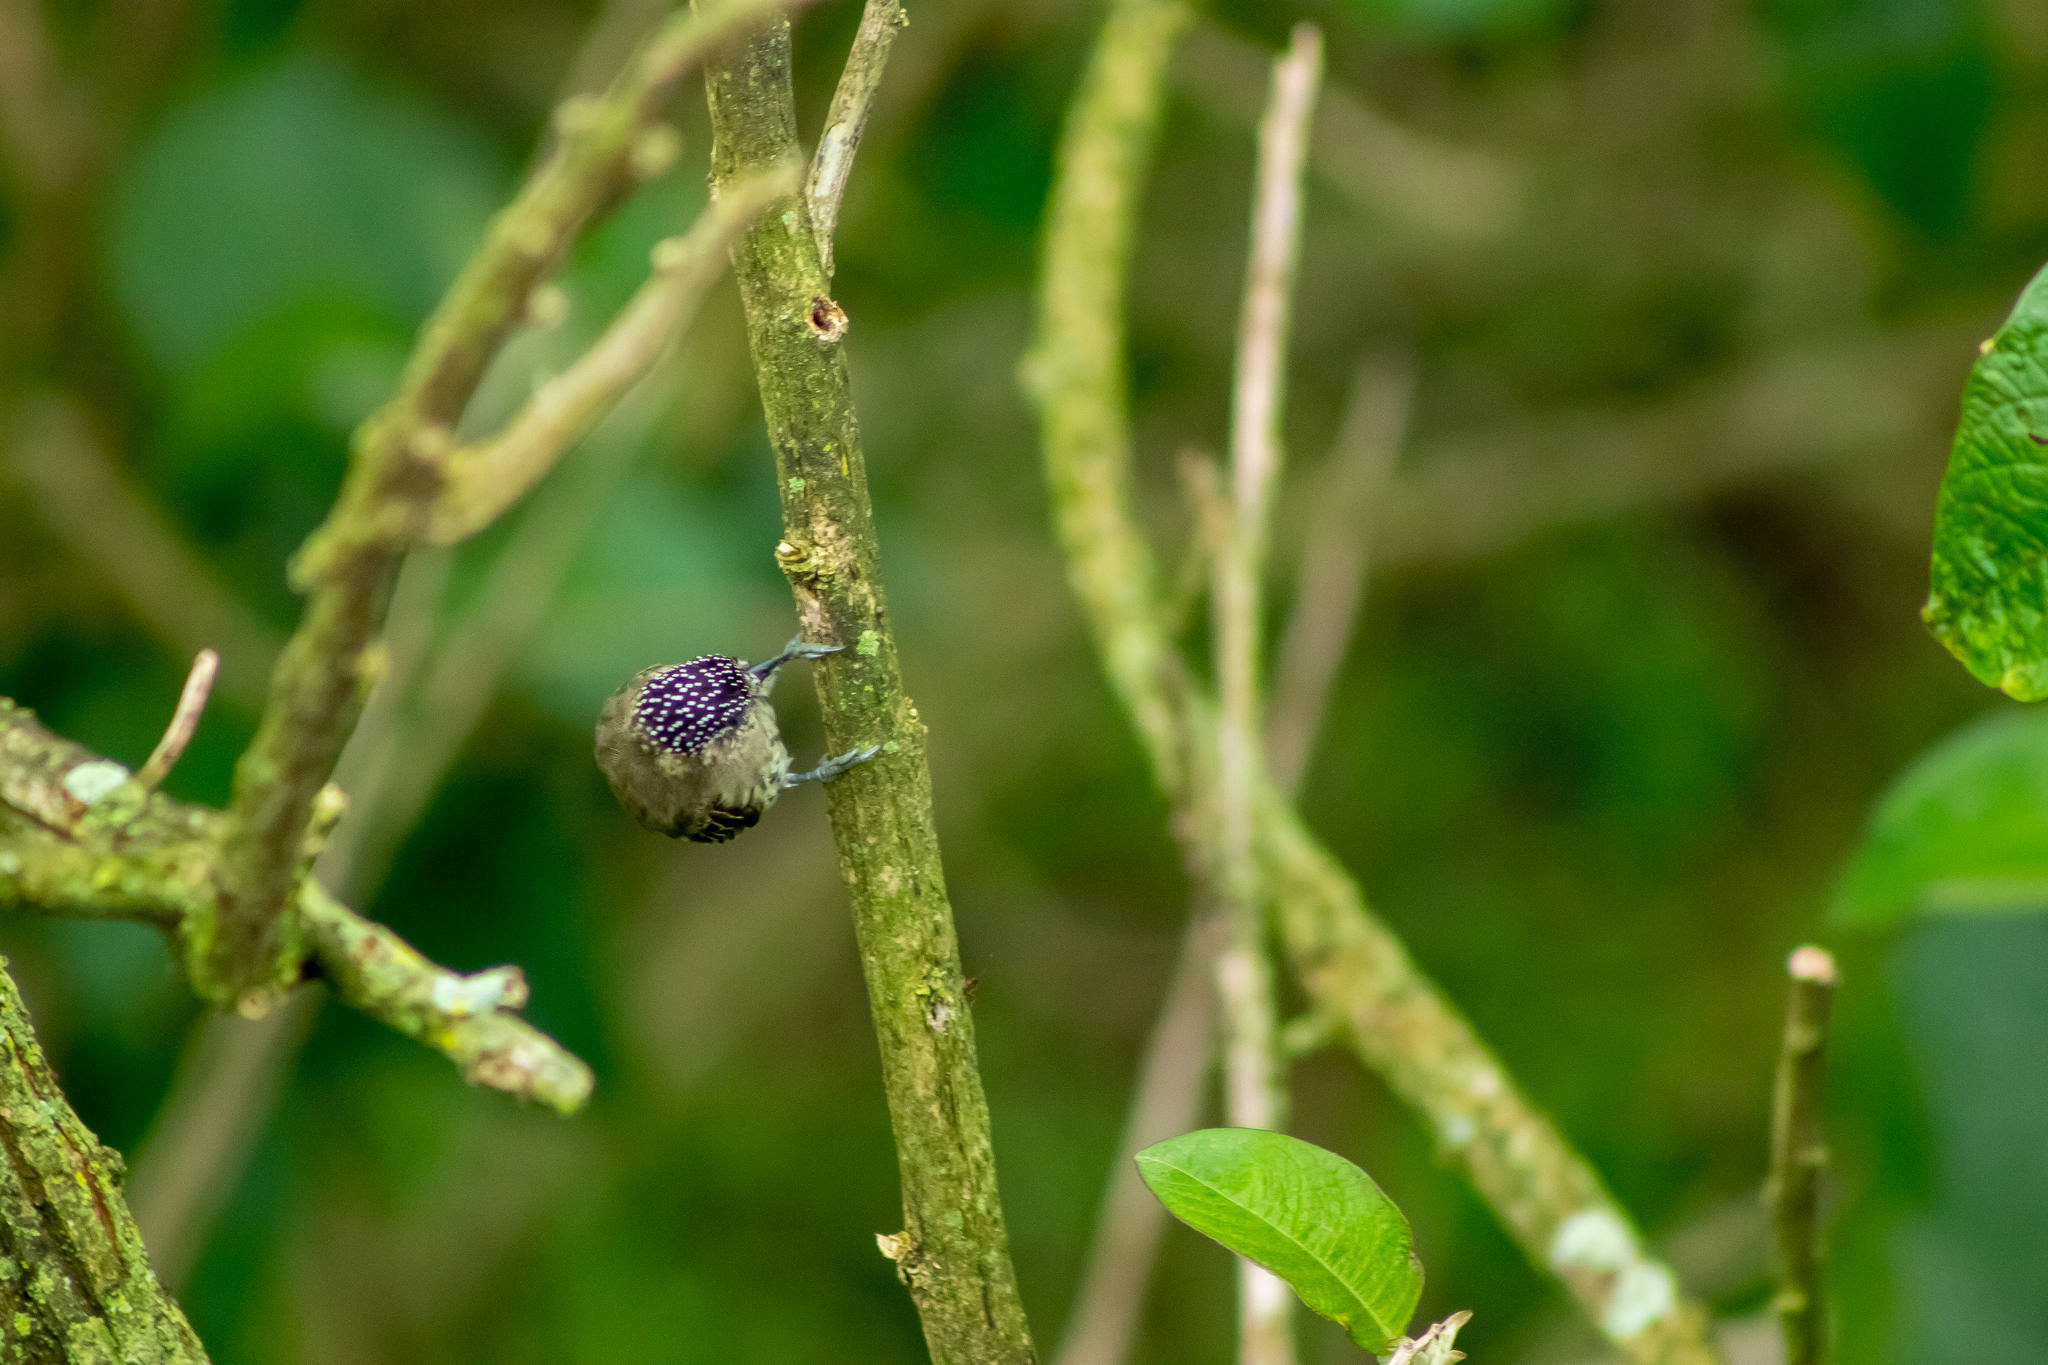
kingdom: Animalia
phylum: Chordata
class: Aves
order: Piciformes
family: Picidae
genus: Picumnus
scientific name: Picumnus olivaceus
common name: Olivaceous piculet
